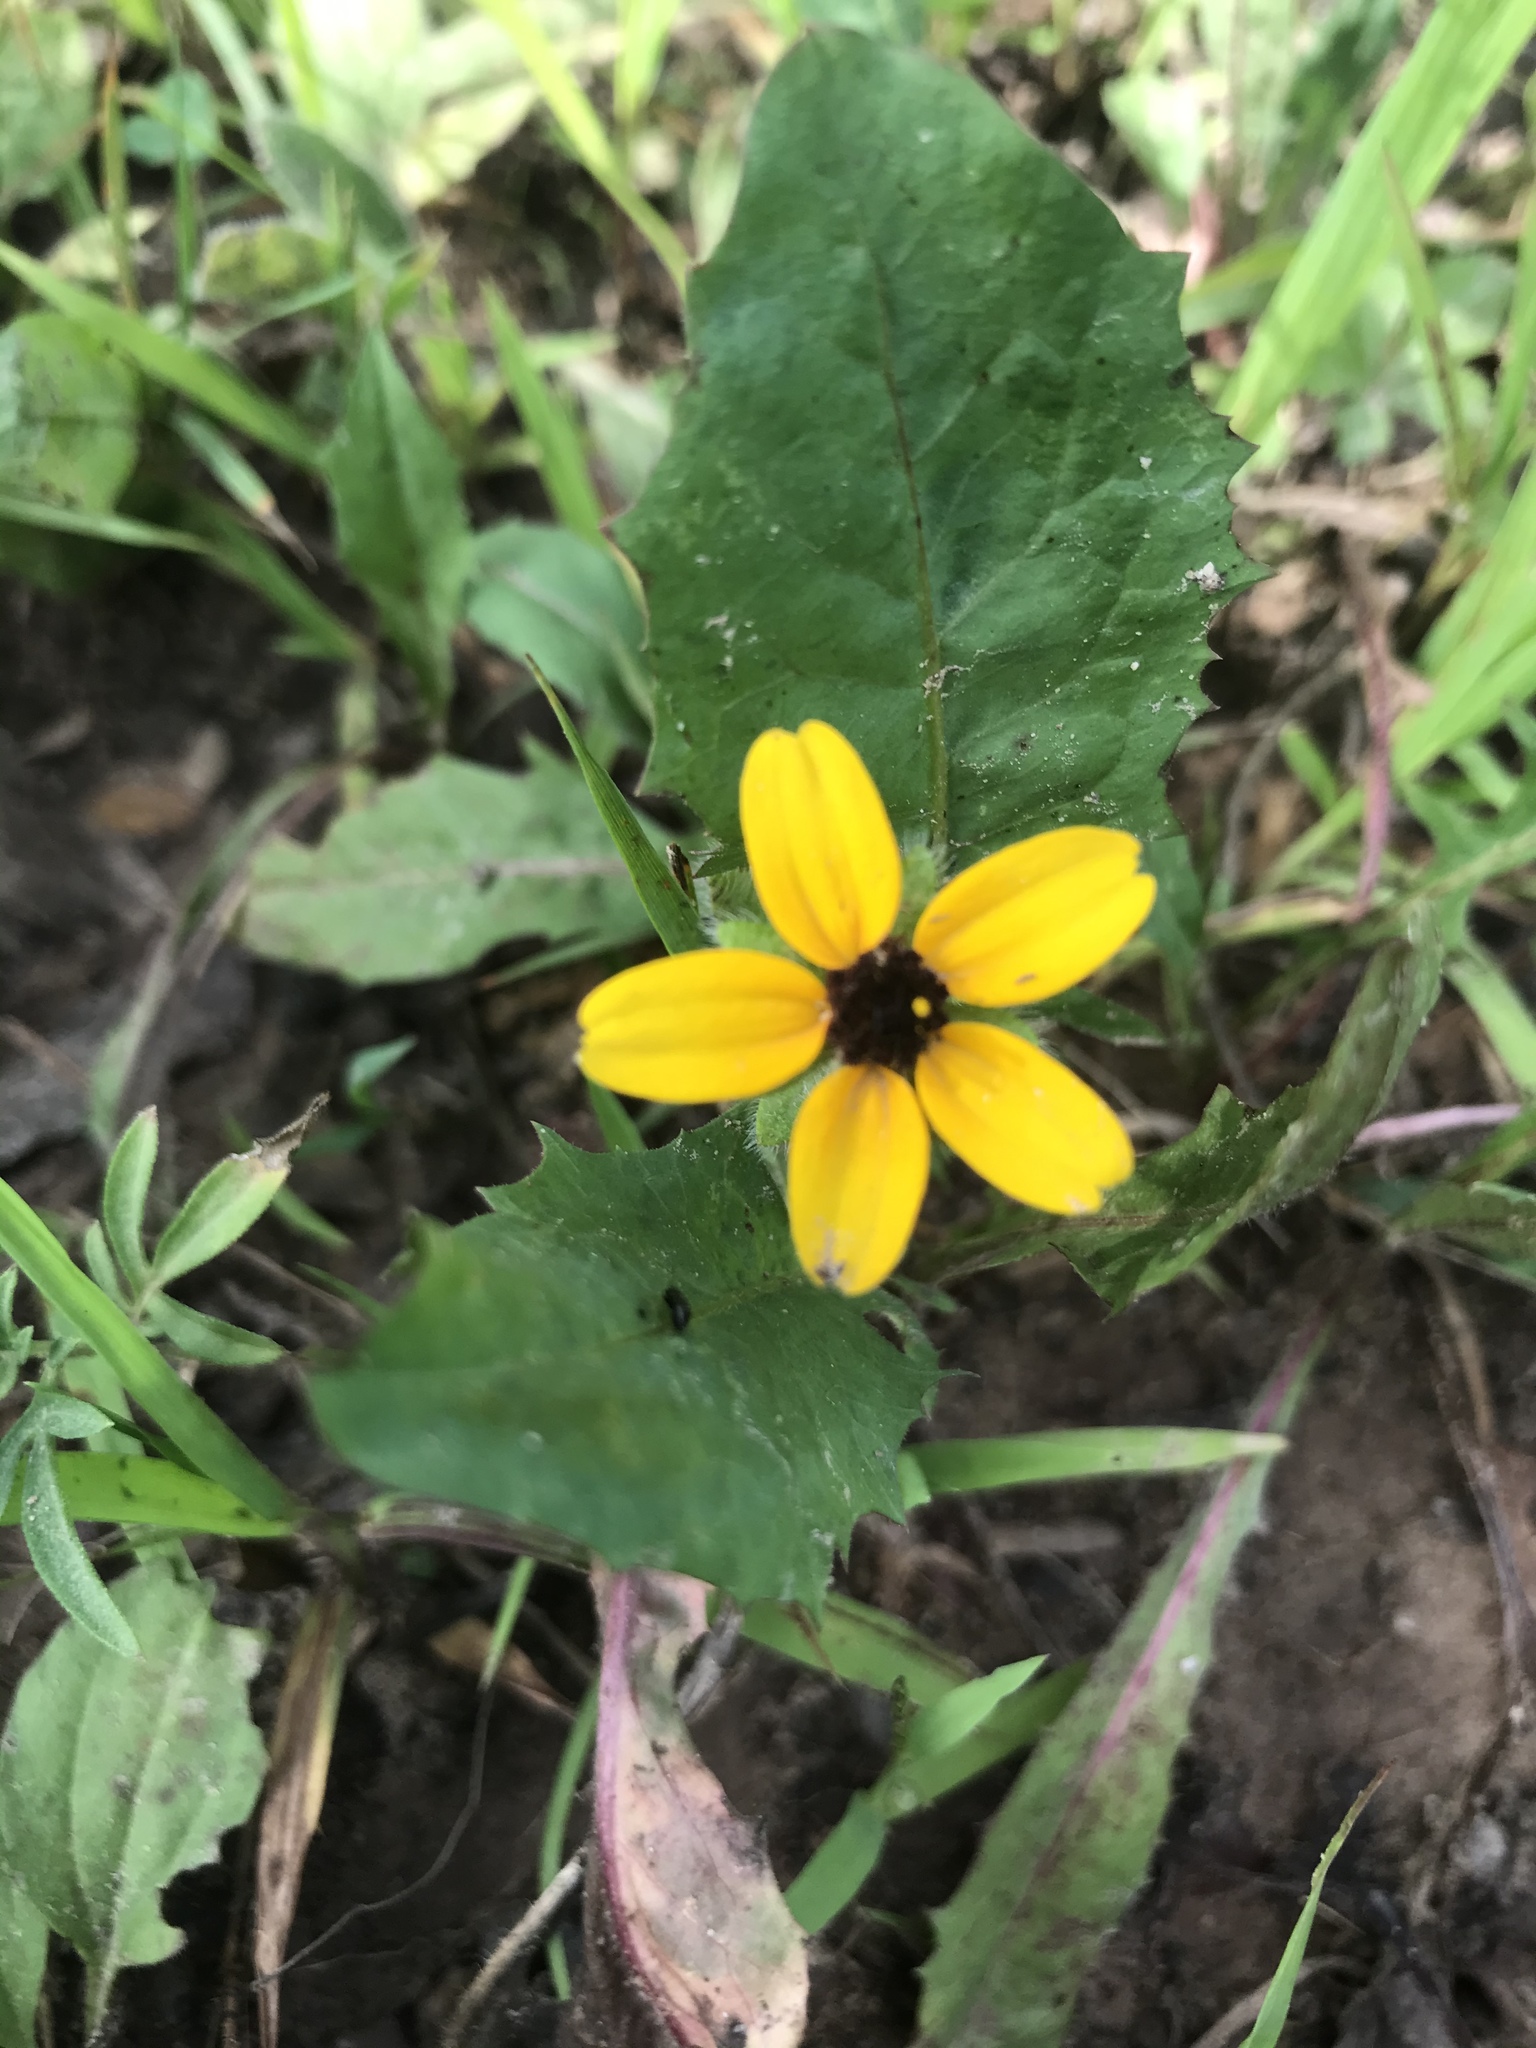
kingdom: Plantae
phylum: Tracheophyta
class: Magnoliopsida
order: Asterales
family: Asteraceae
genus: Rudbeckia
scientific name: Rudbeckia triloba
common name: Thin-leaved coneflower
